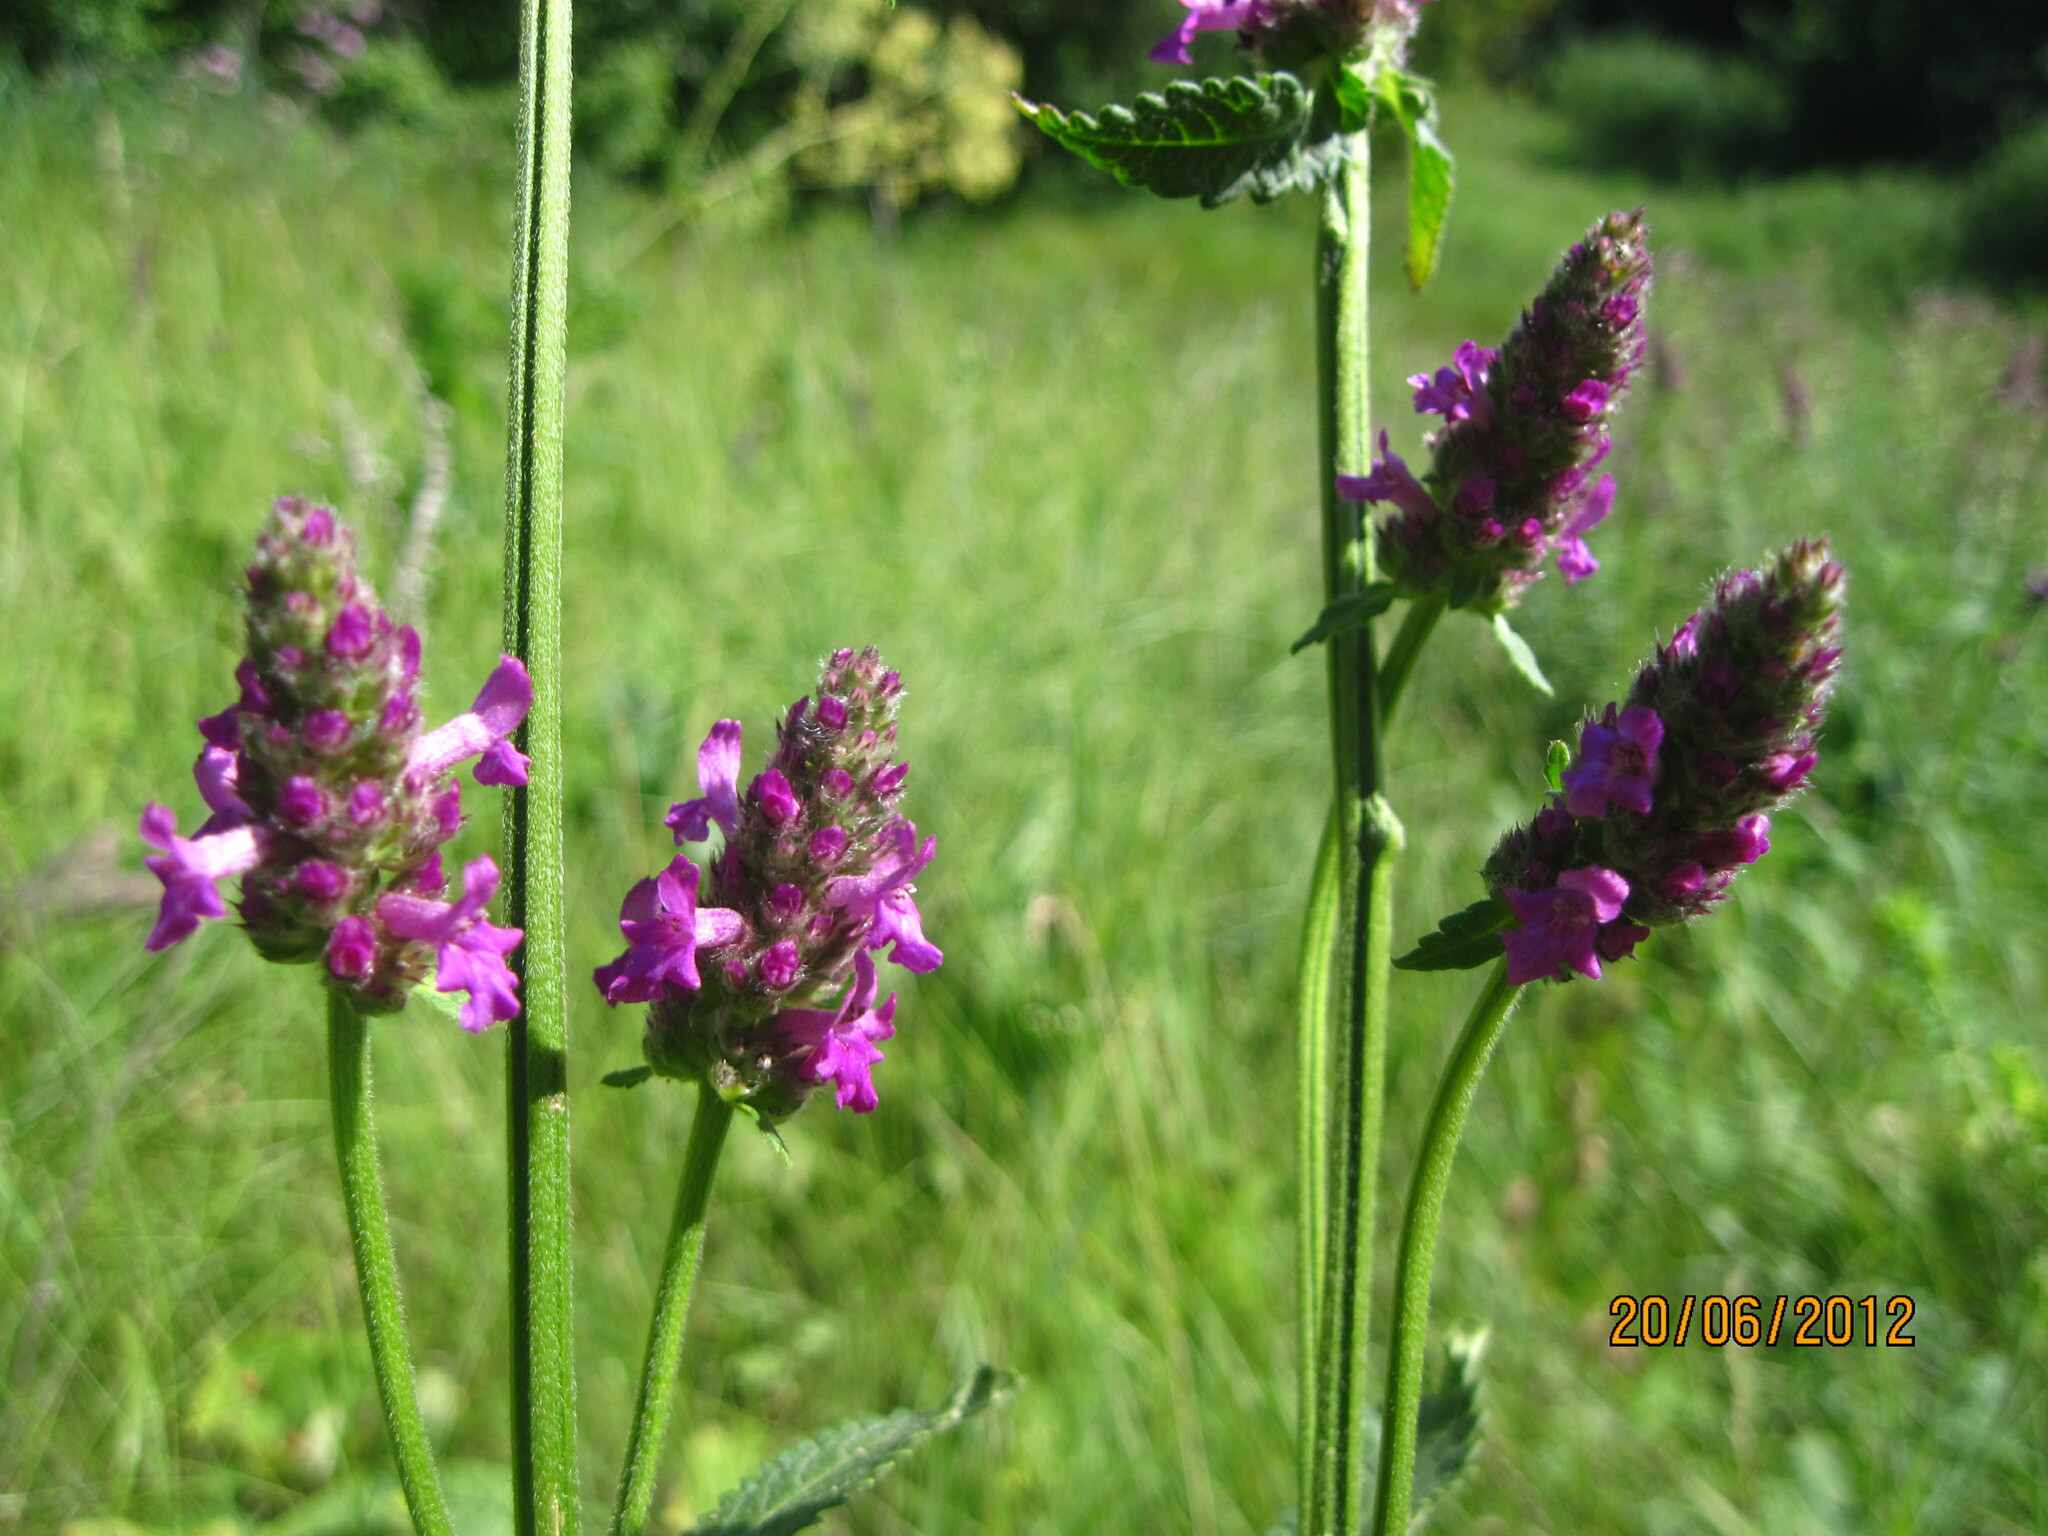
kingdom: Plantae
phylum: Tracheophyta
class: Magnoliopsida
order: Lamiales
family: Lamiaceae
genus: Betonica
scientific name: Betonica officinalis
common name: Bishop's-wort
